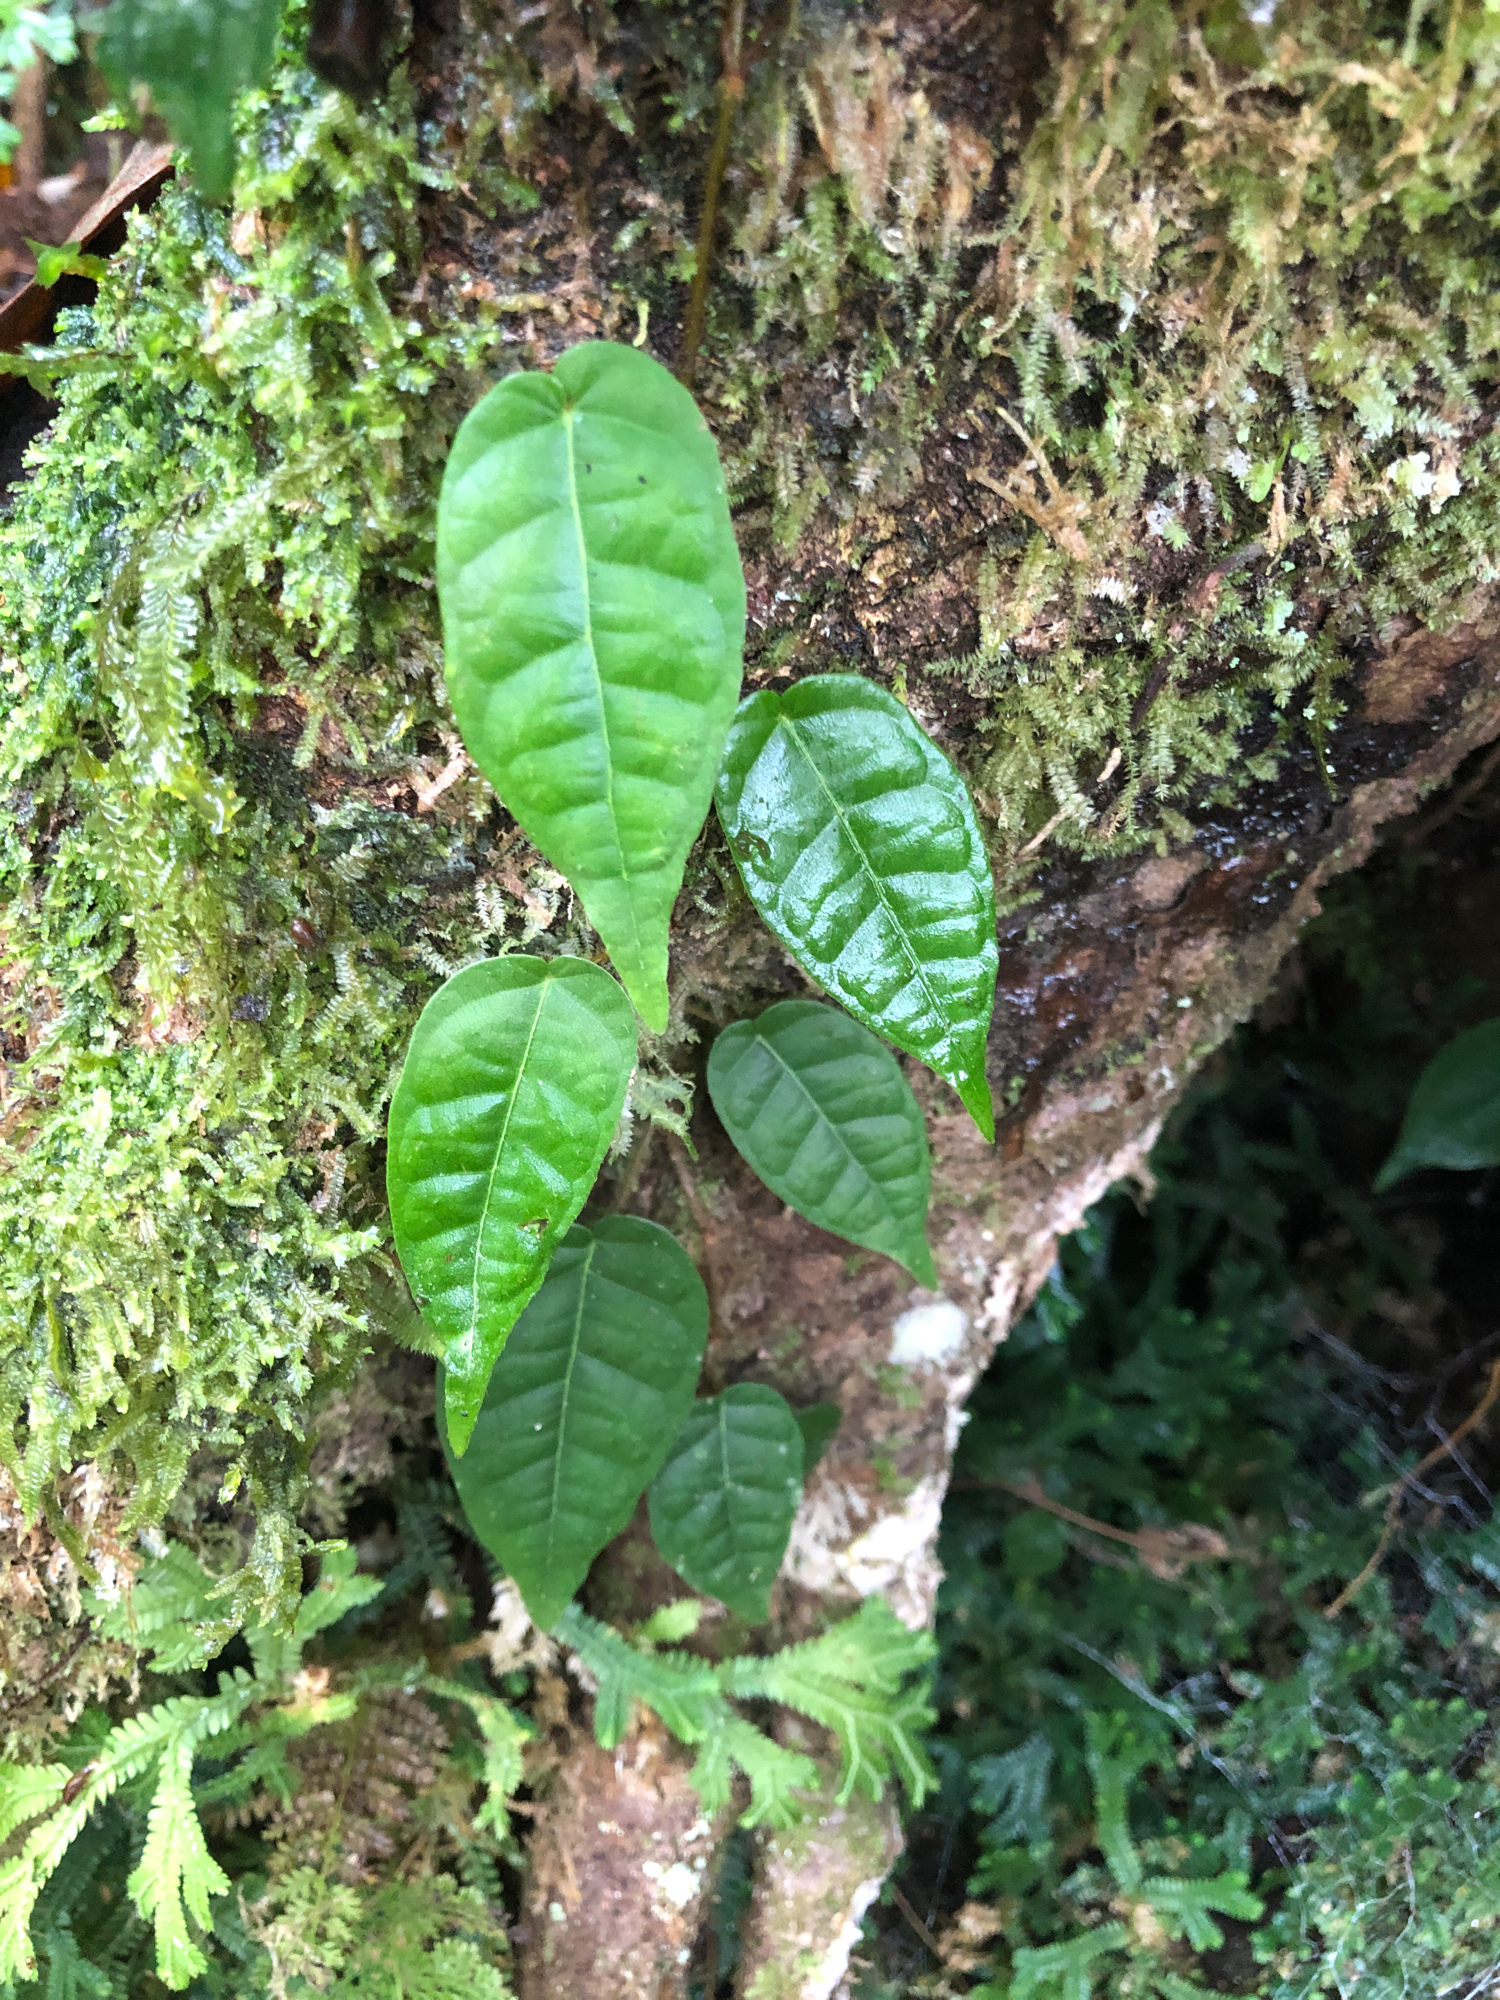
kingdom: Plantae
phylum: Tracheophyta
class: Magnoliopsida
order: Rosales
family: Moraceae
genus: Ficus
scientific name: Ficus sarmentosa
